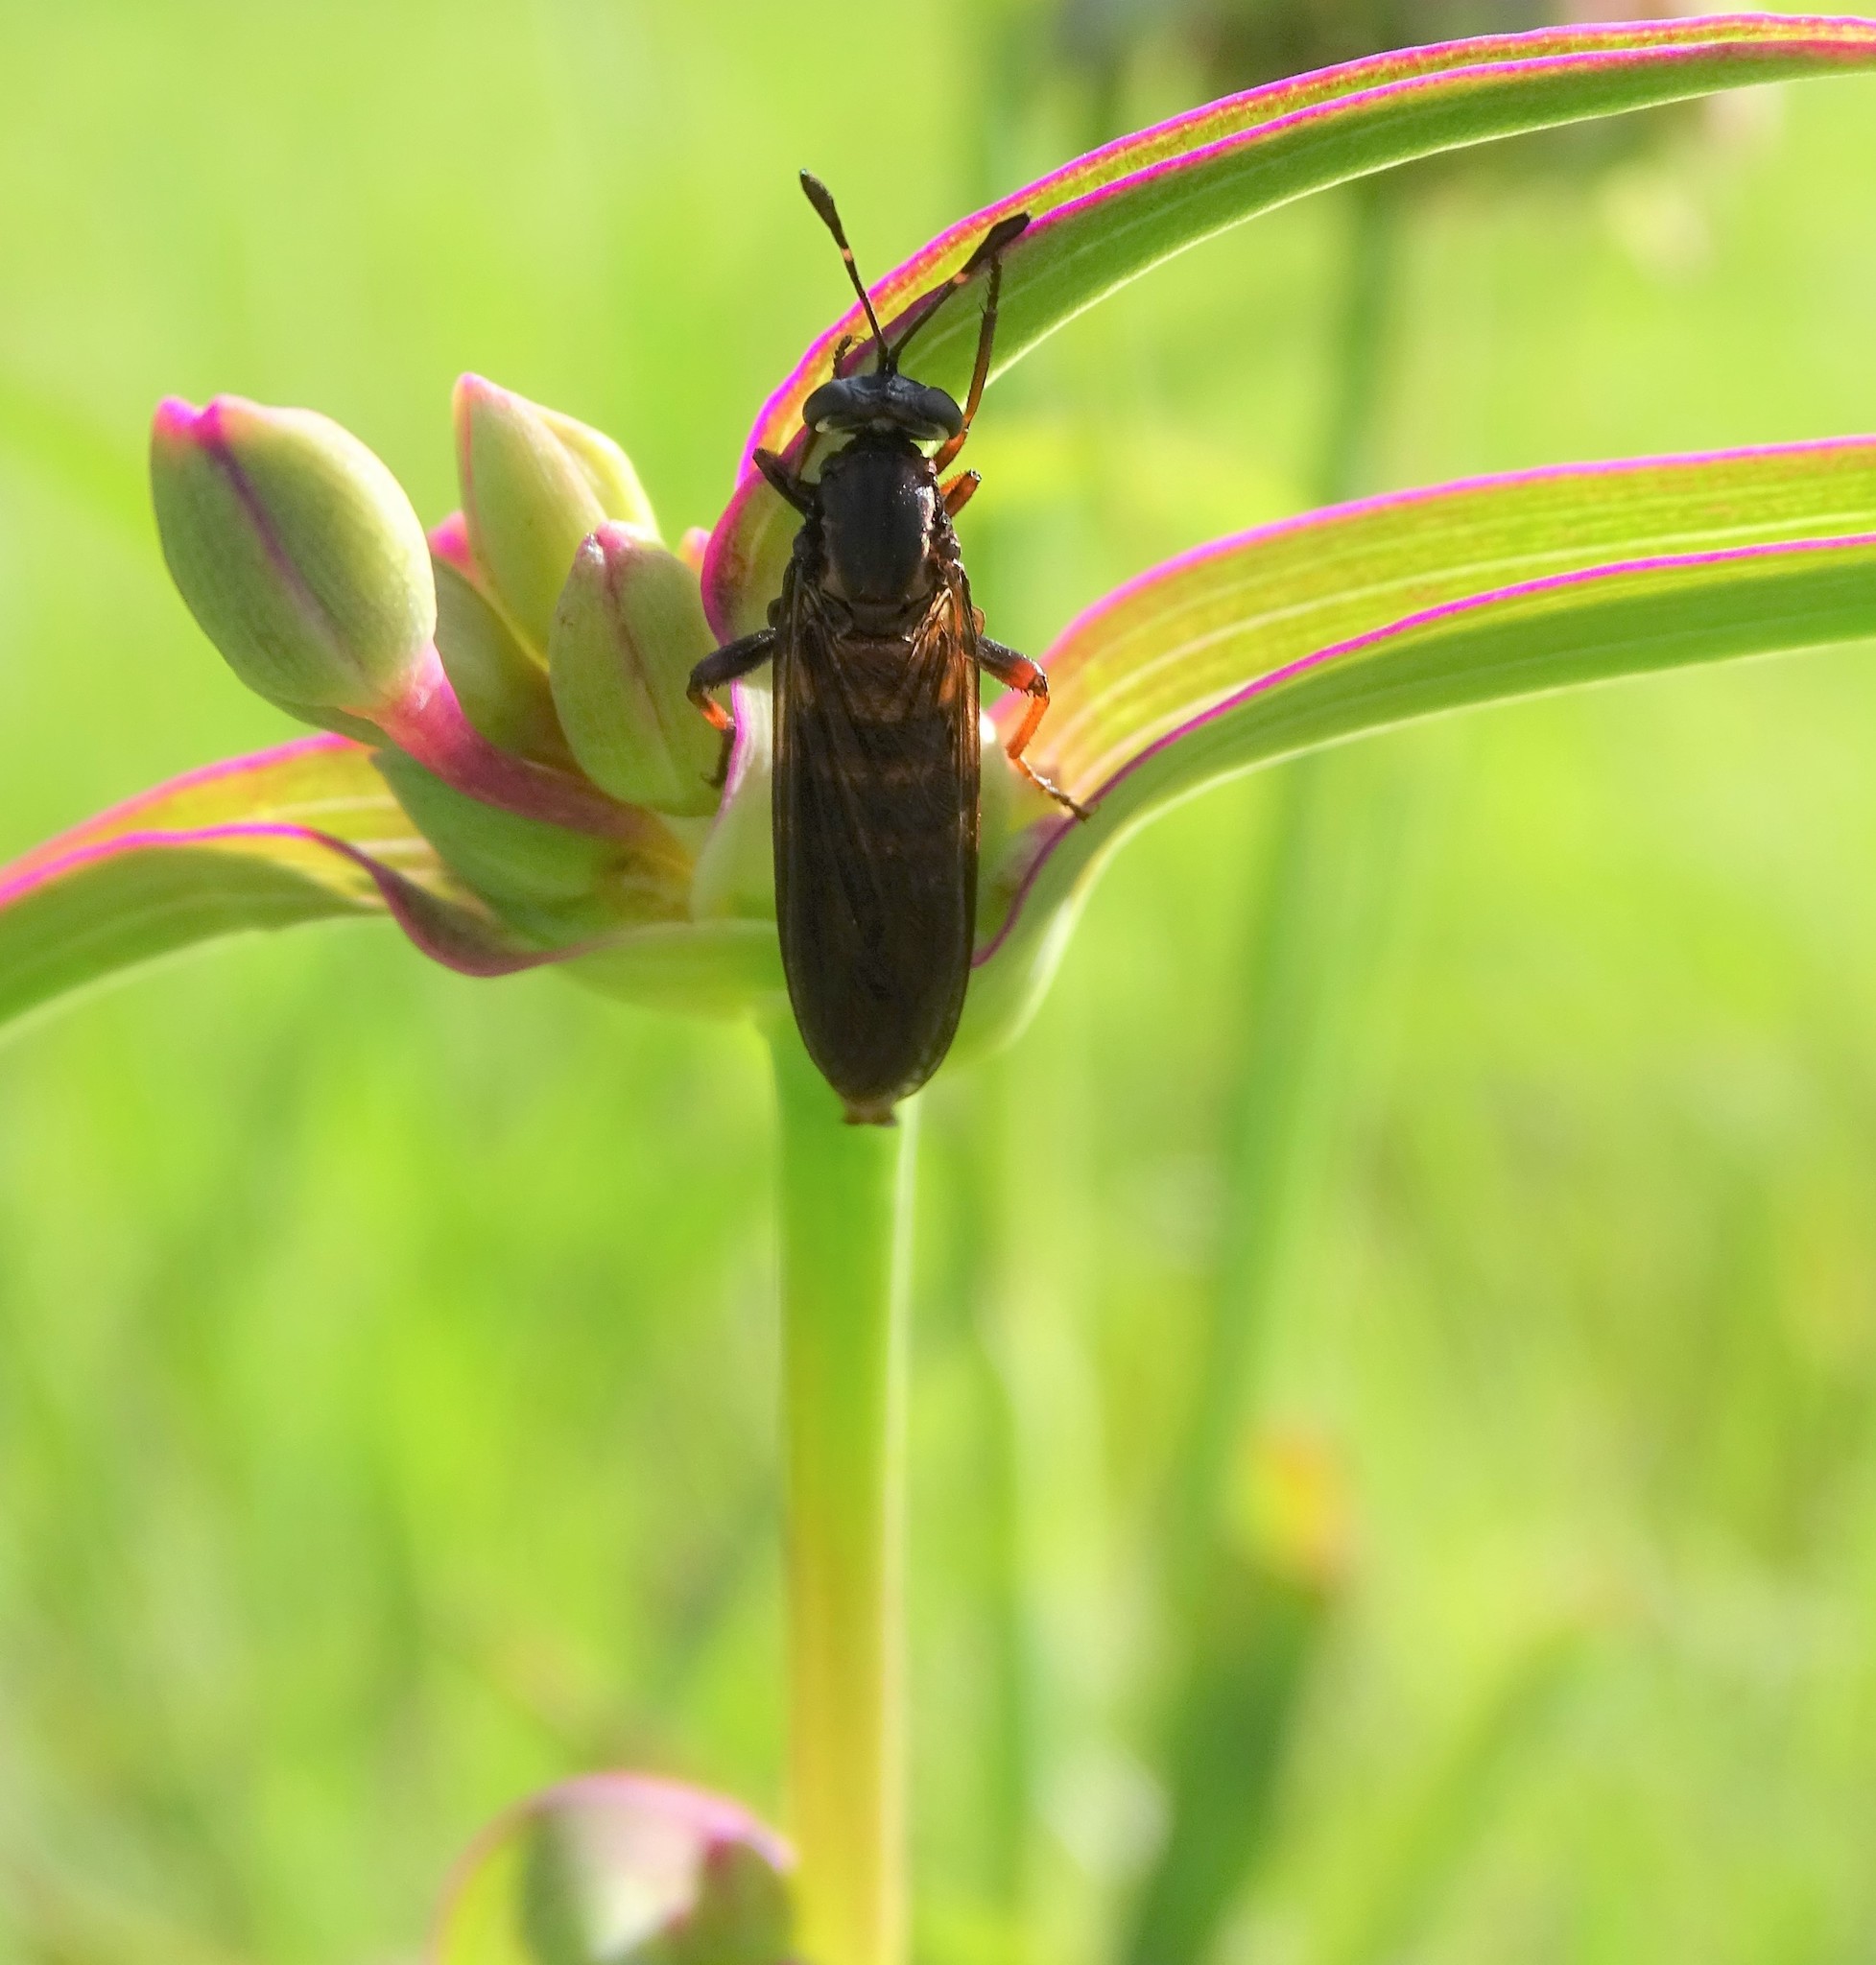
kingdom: Animalia
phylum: Arthropoda
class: Insecta
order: Diptera
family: Mydidae
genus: Phyllomydas
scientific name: Phyllomydas parvulus
